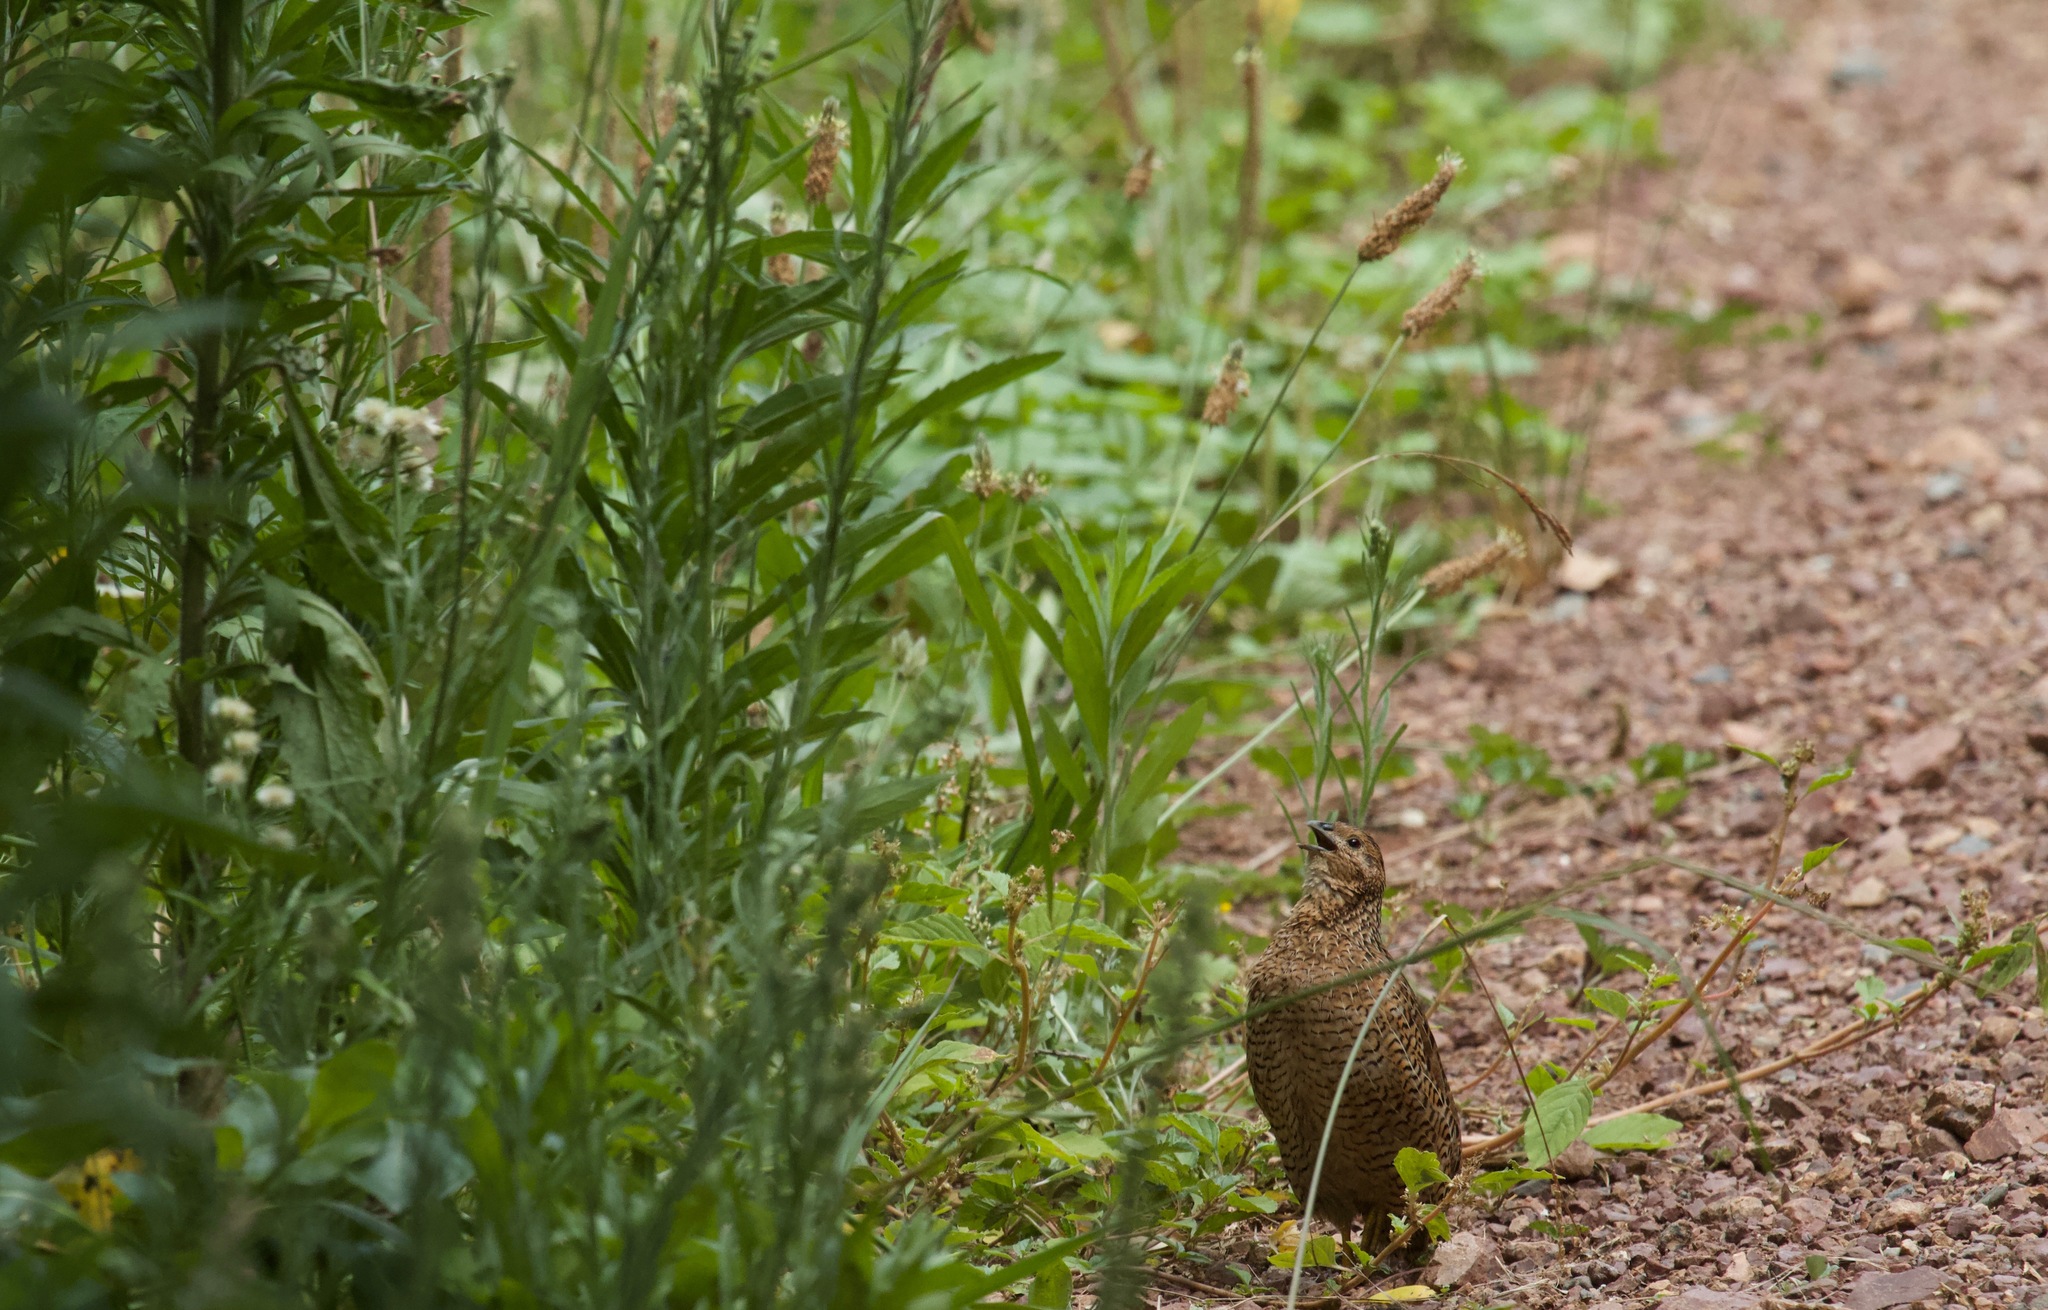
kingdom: Animalia
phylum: Chordata
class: Aves
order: Galliformes
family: Phasianidae
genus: Synoicus
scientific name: Synoicus ypsilophorus
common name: Brown quail
